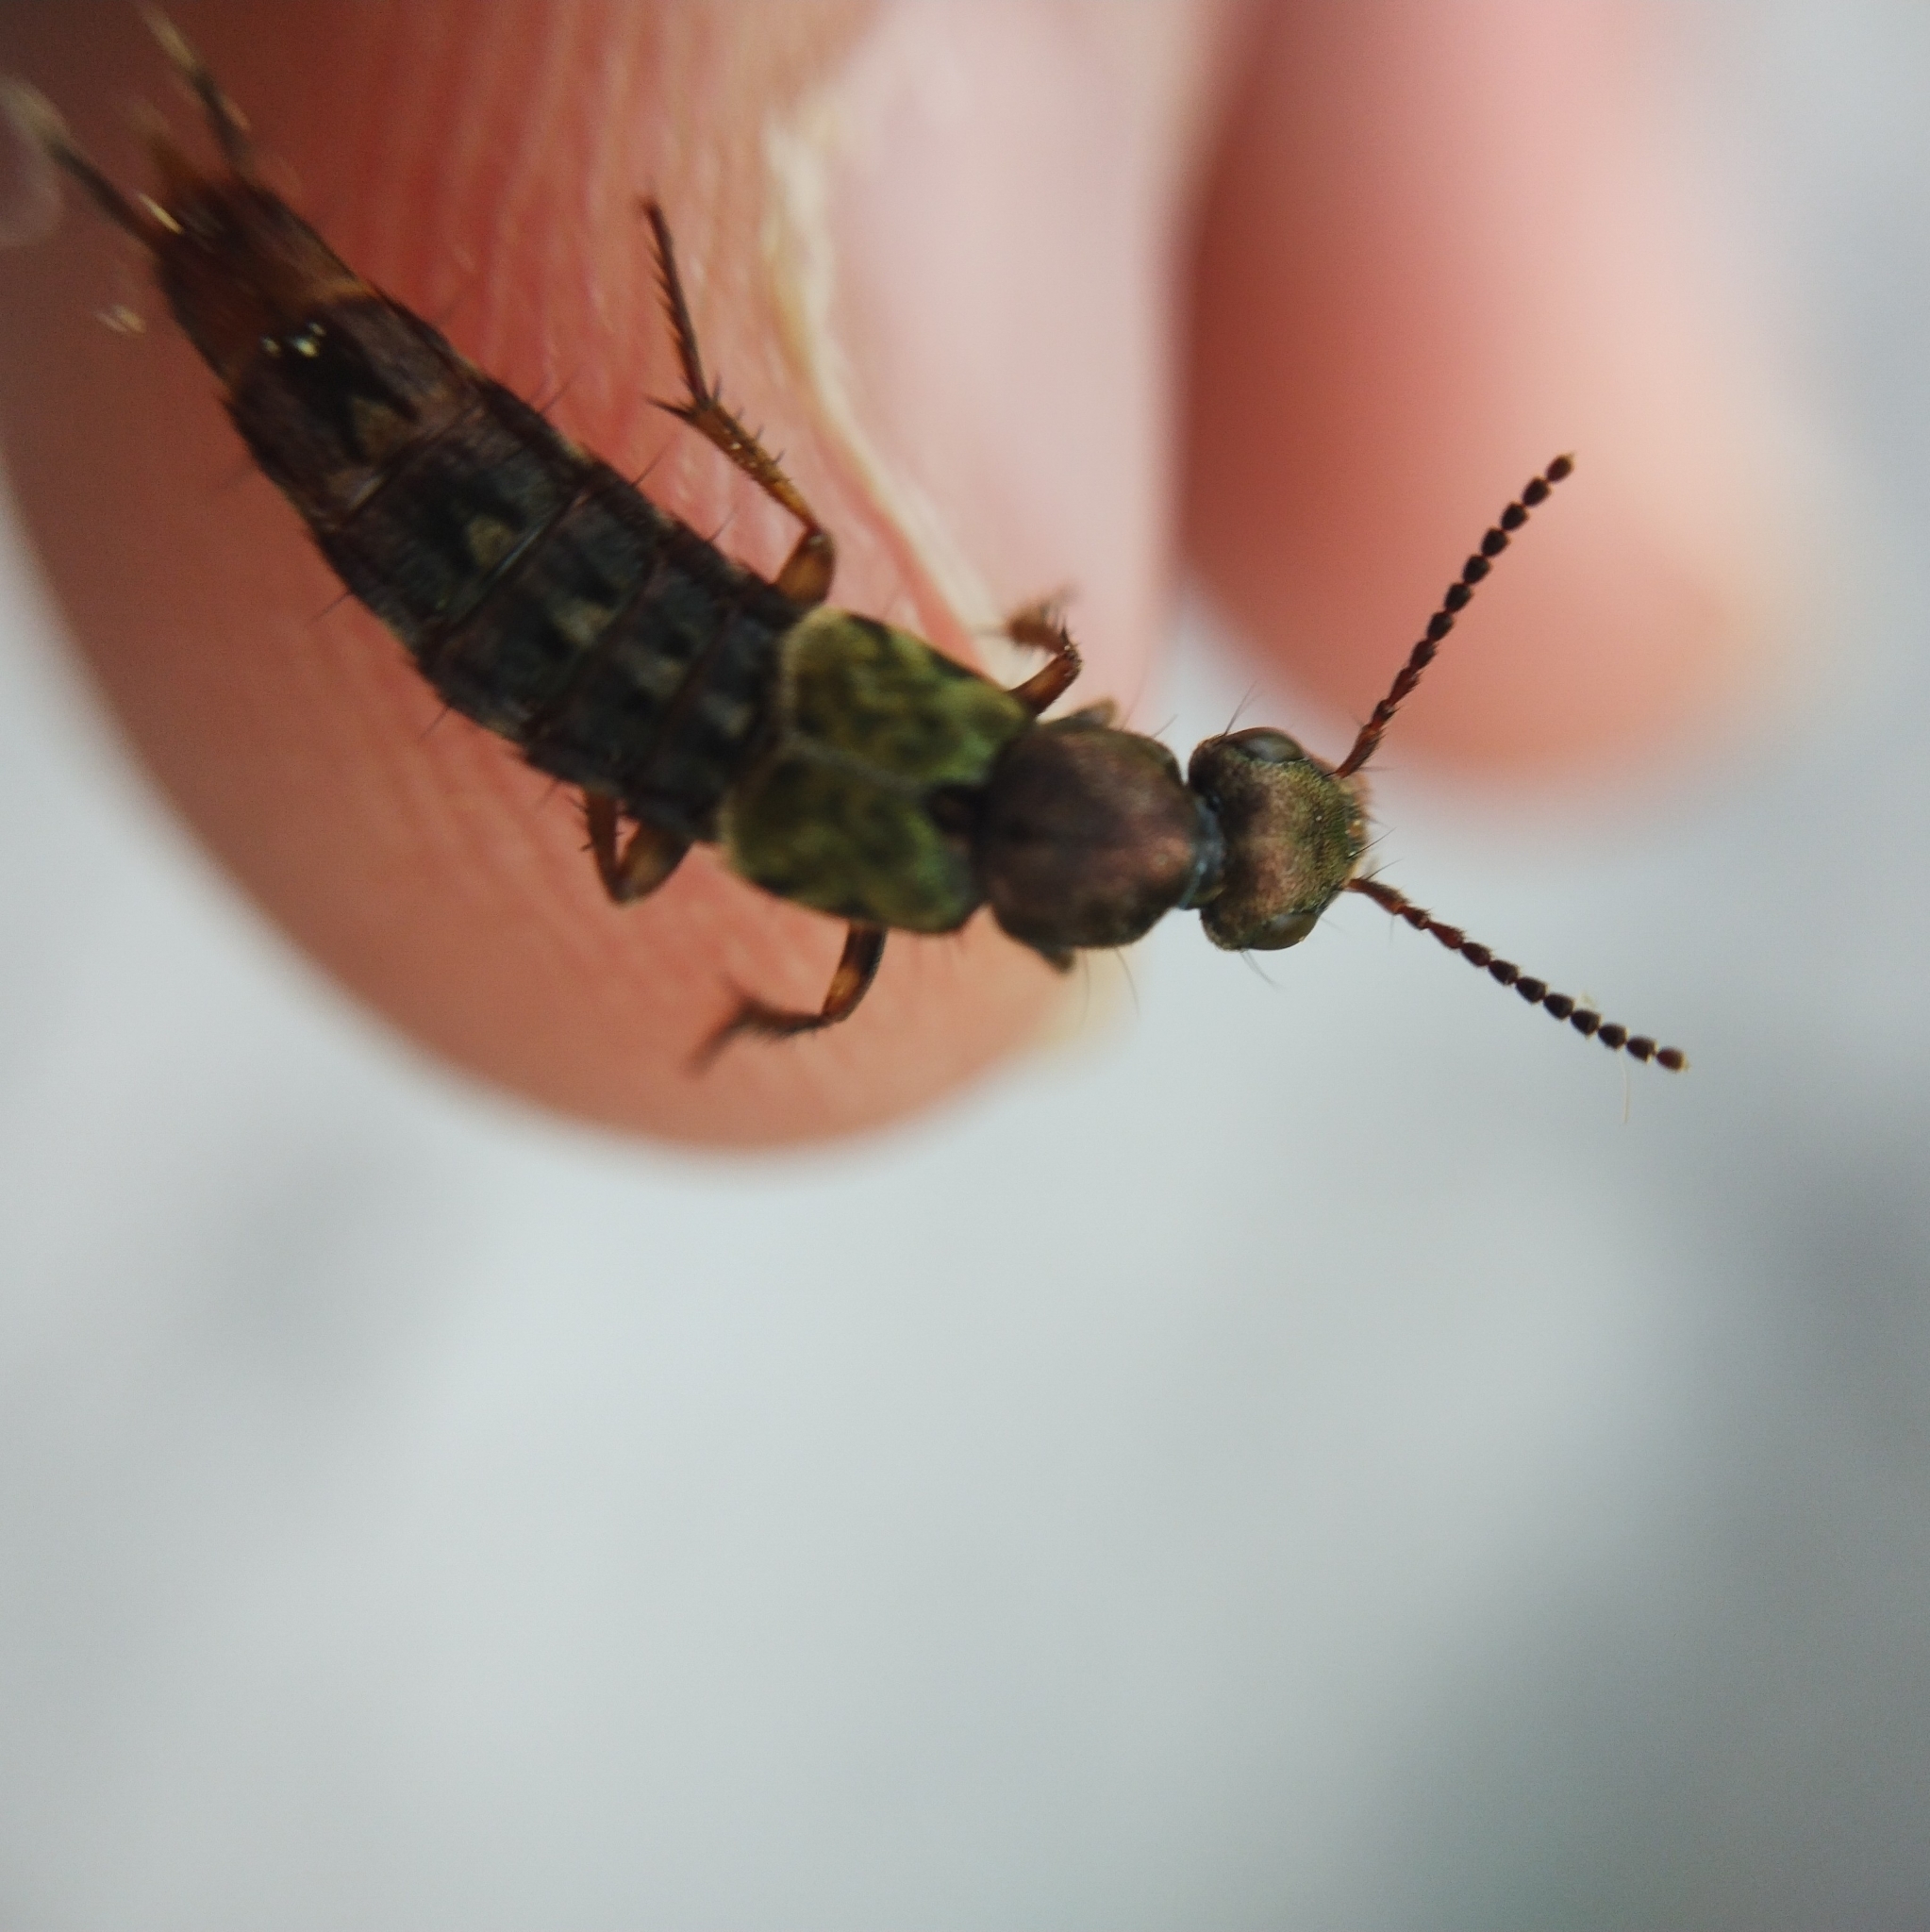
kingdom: Animalia
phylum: Arthropoda
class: Insecta
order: Coleoptera
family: Staphylinidae
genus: Abemus
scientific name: Abemus chloropterus
